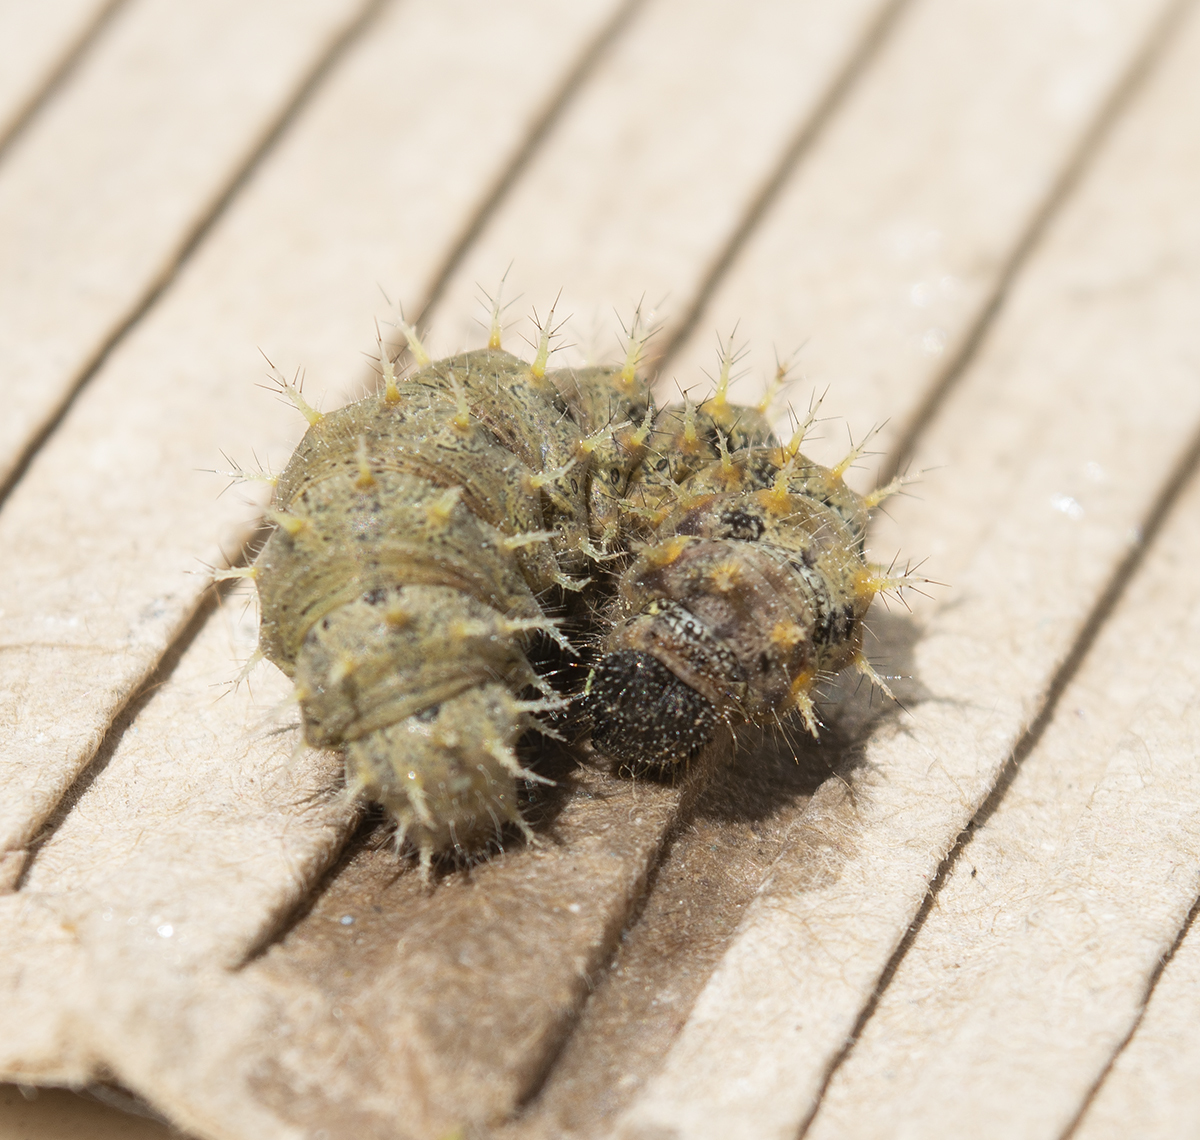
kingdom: Animalia
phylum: Arthropoda
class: Insecta
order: Lepidoptera
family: Nymphalidae
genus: Vanessa
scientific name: Vanessa cardui
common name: Painted lady
